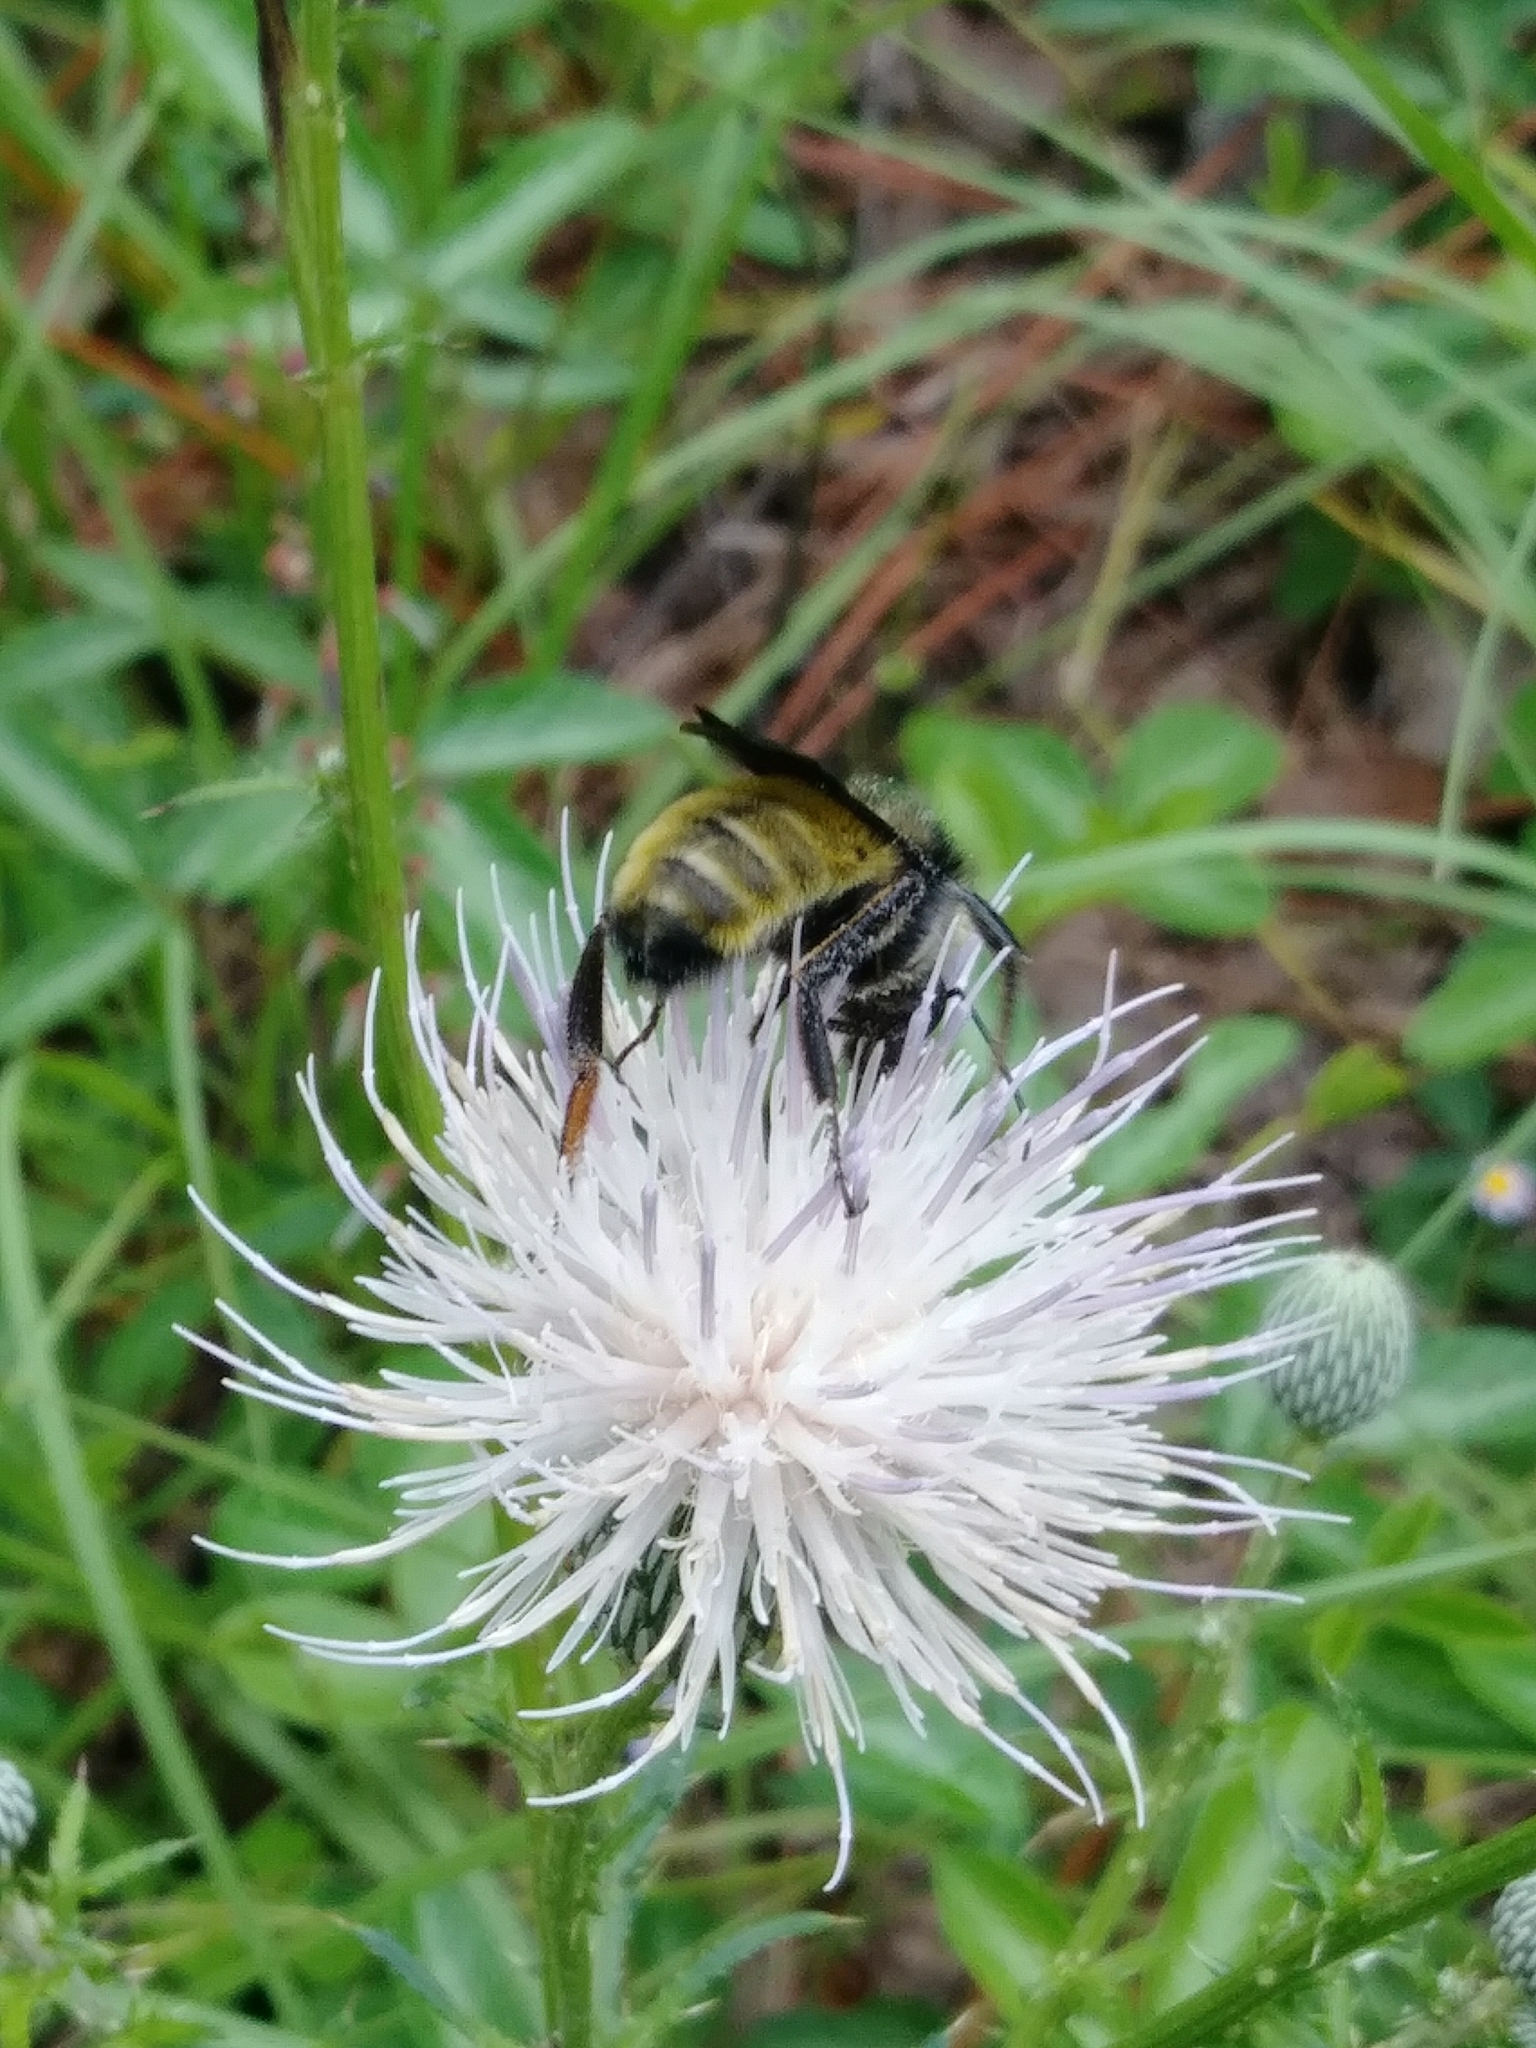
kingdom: Animalia
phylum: Arthropoda
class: Insecta
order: Hymenoptera
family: Apidae
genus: Bombus
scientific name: Bombus pensylvanicus
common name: Bumble bee
